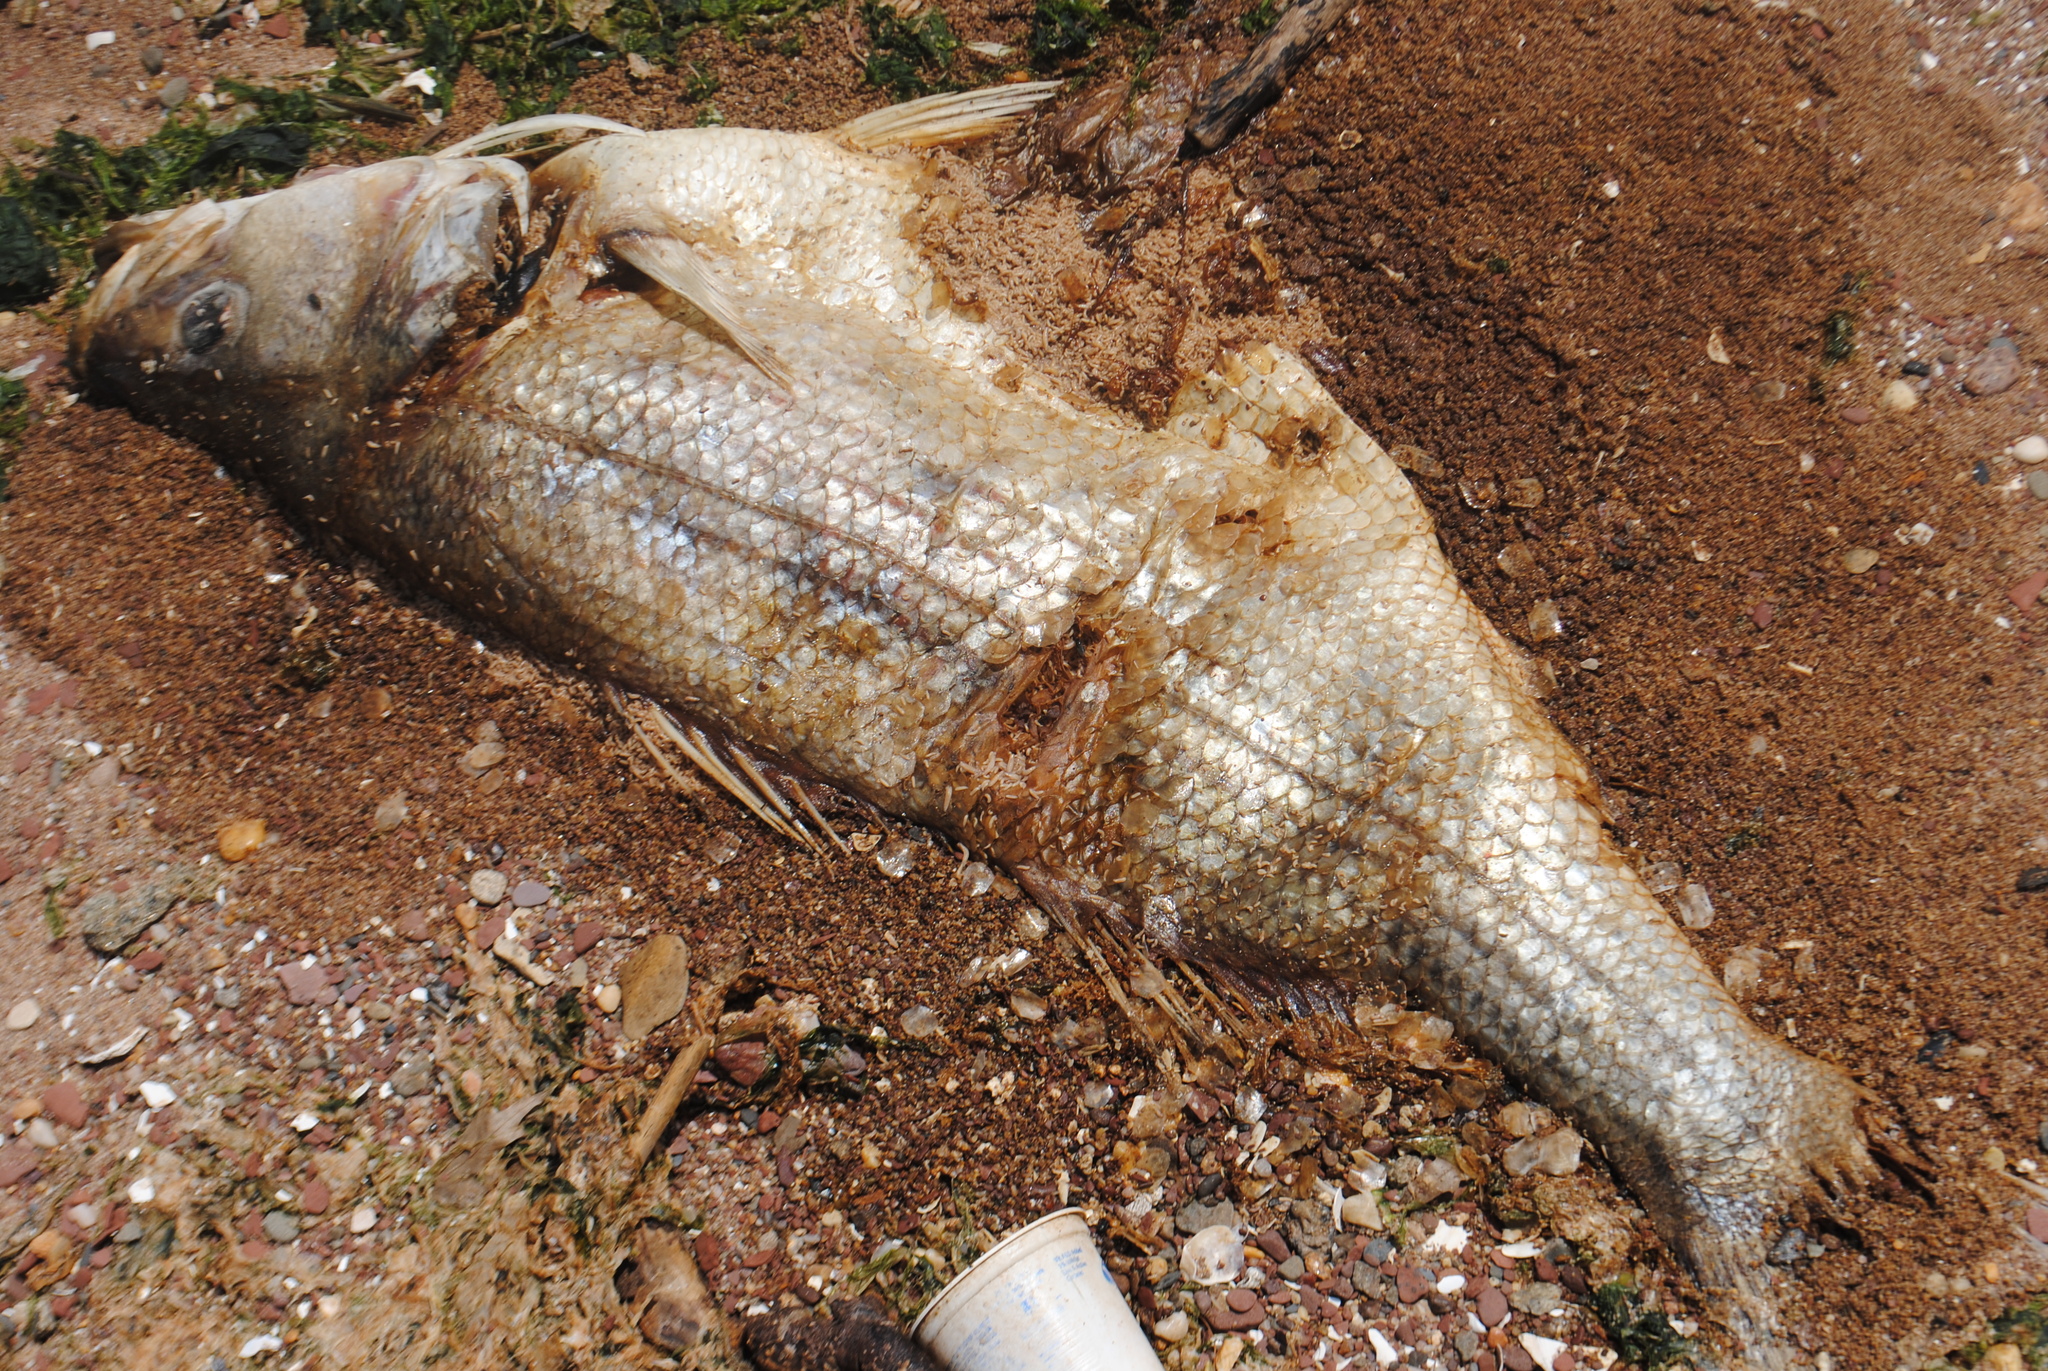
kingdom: Animalia
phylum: Chordata
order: Perciformes
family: Moronidae
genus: Morone
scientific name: Morone saxatilis
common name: Striped bass
